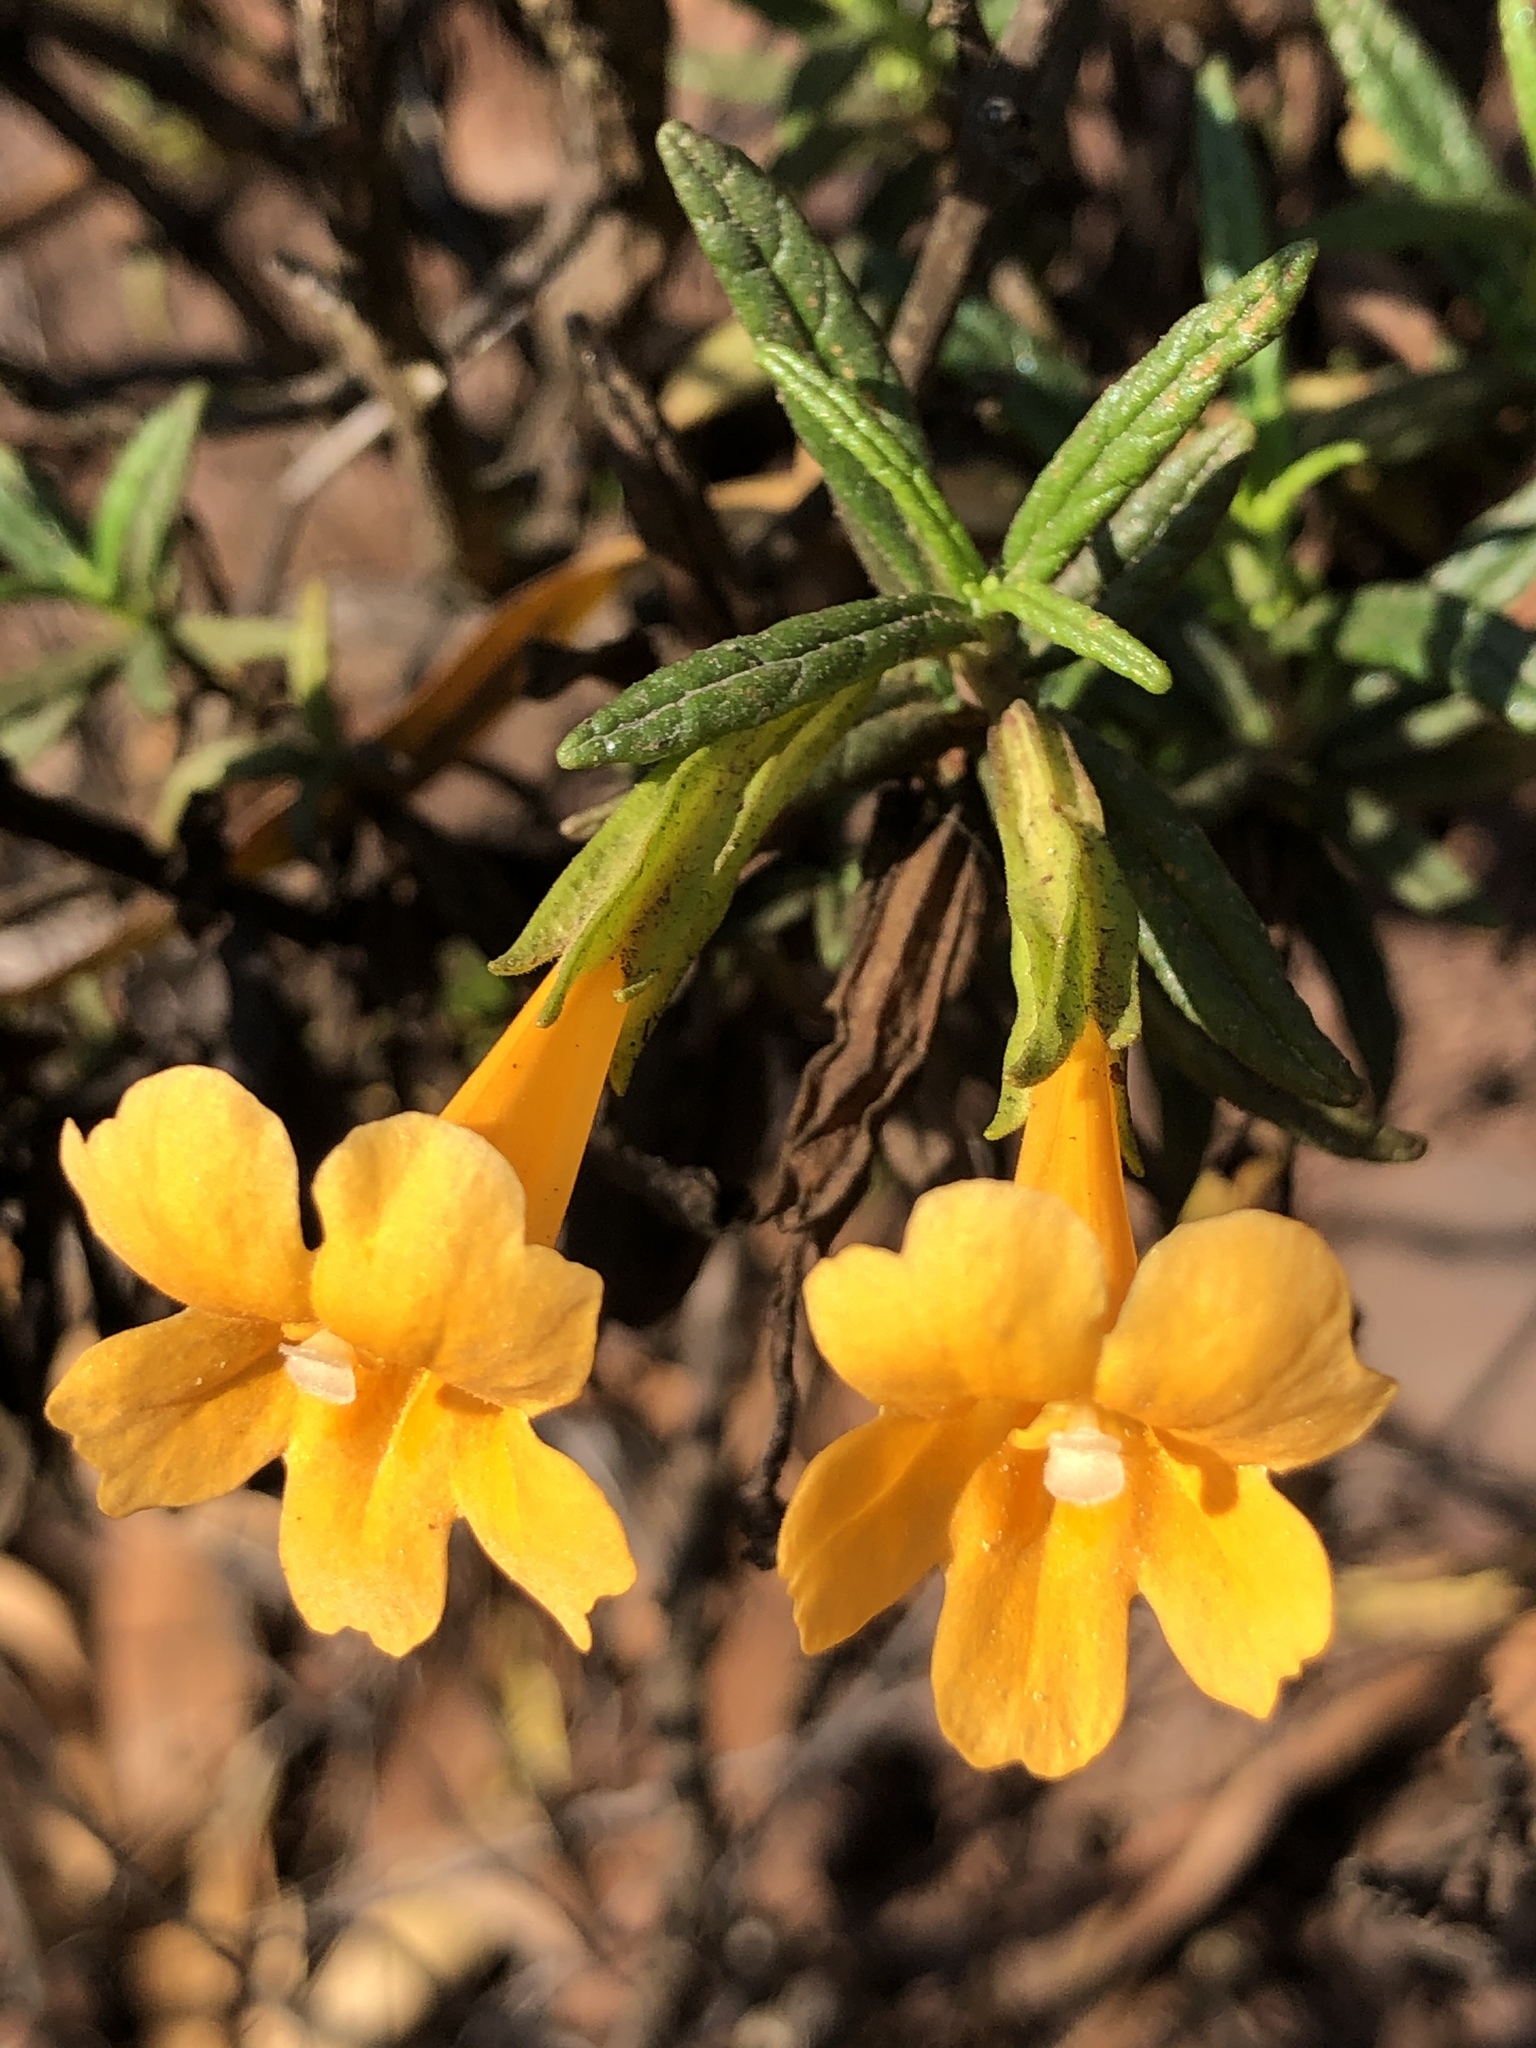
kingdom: Plantae
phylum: Tracheophyta
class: Magnoliopsida
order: Lamiales
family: Phrymaceae
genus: Diplacus
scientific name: Diplacus aurantiacus
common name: Bush monkey-flower
